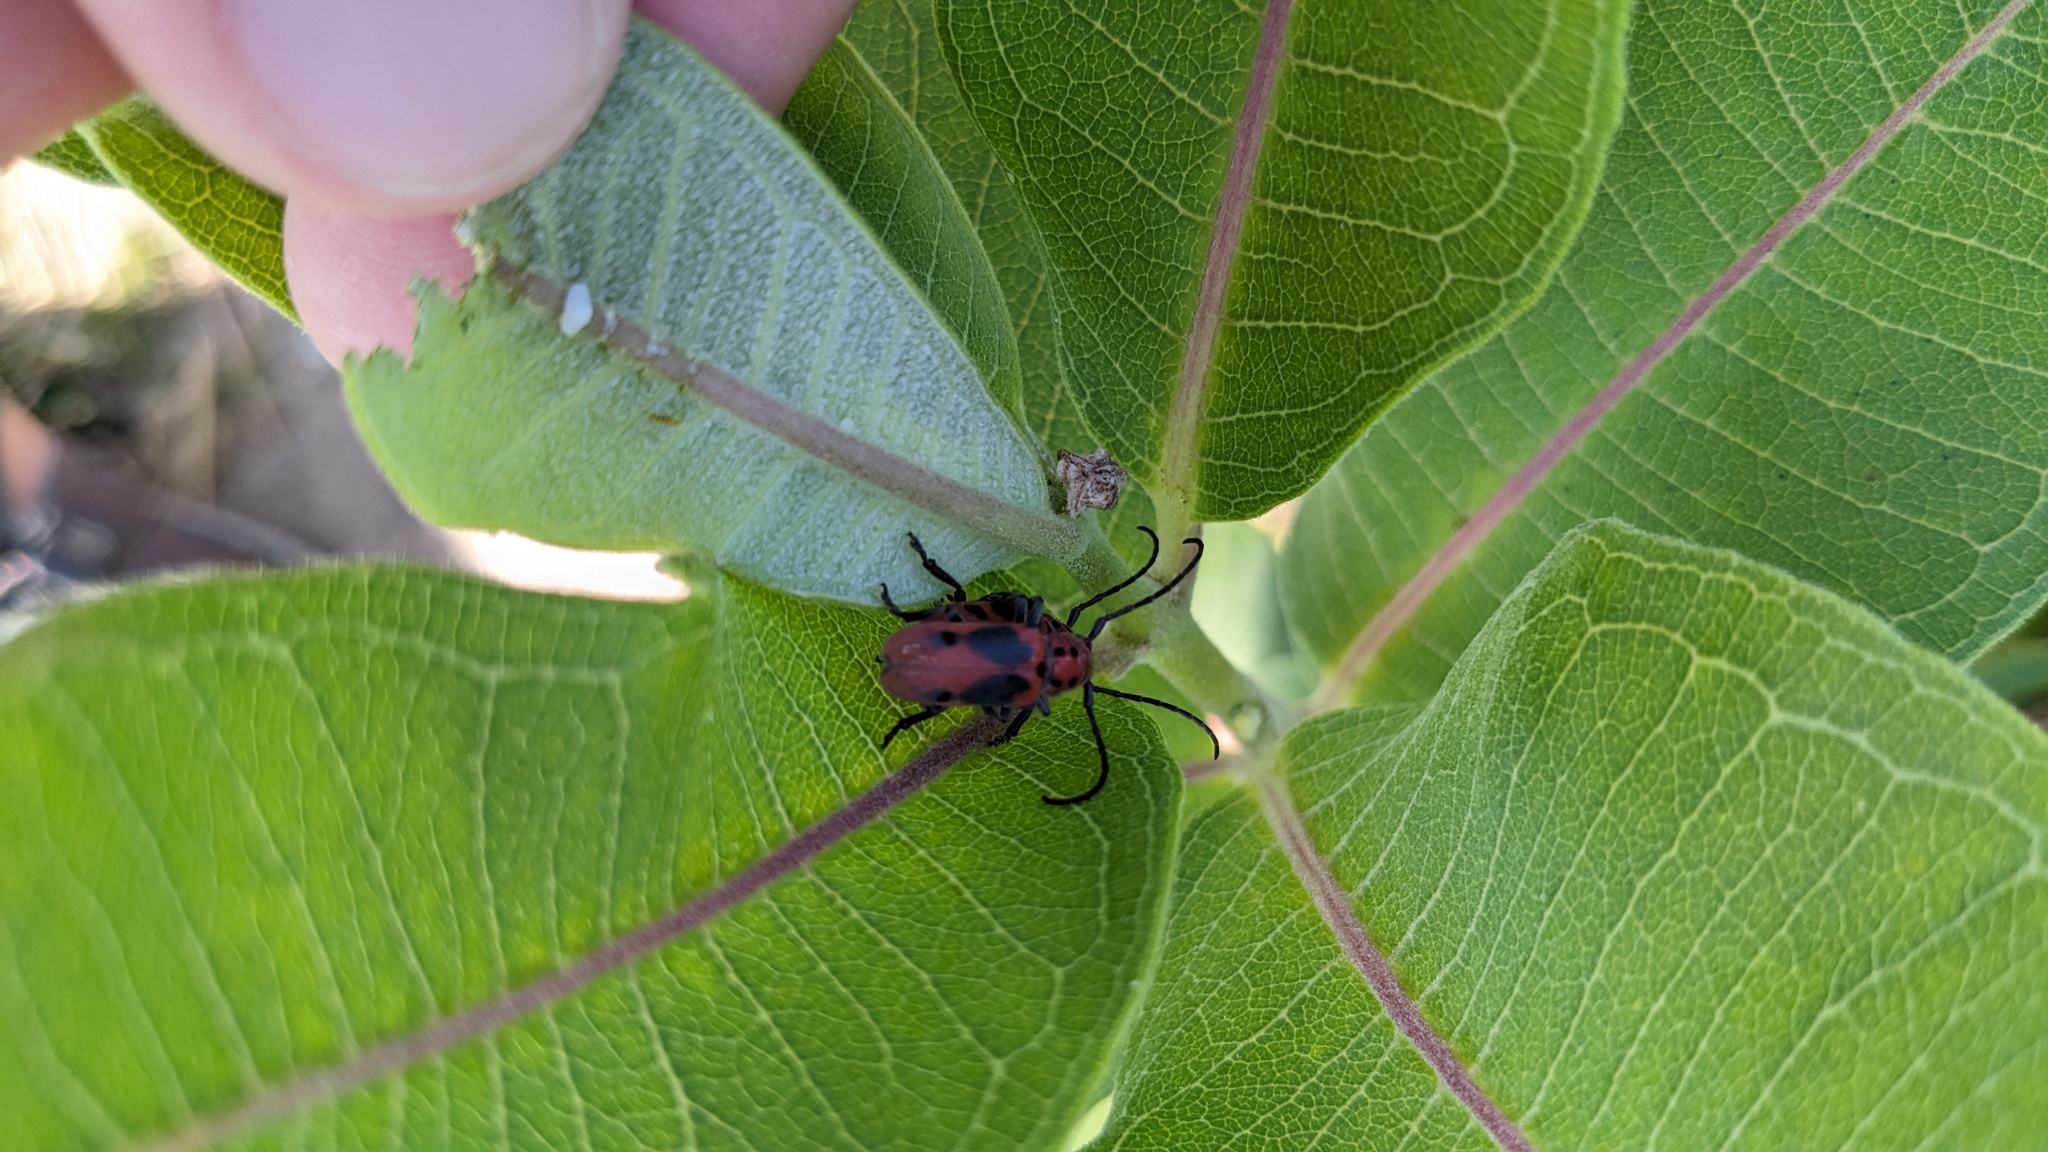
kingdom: Animalia
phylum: Arthropoda
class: Insecta
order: Coleoptera
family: Cerambycidae
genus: Tetraopes
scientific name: Tetraopes tetrophthalmus
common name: Red milkweed beetle
